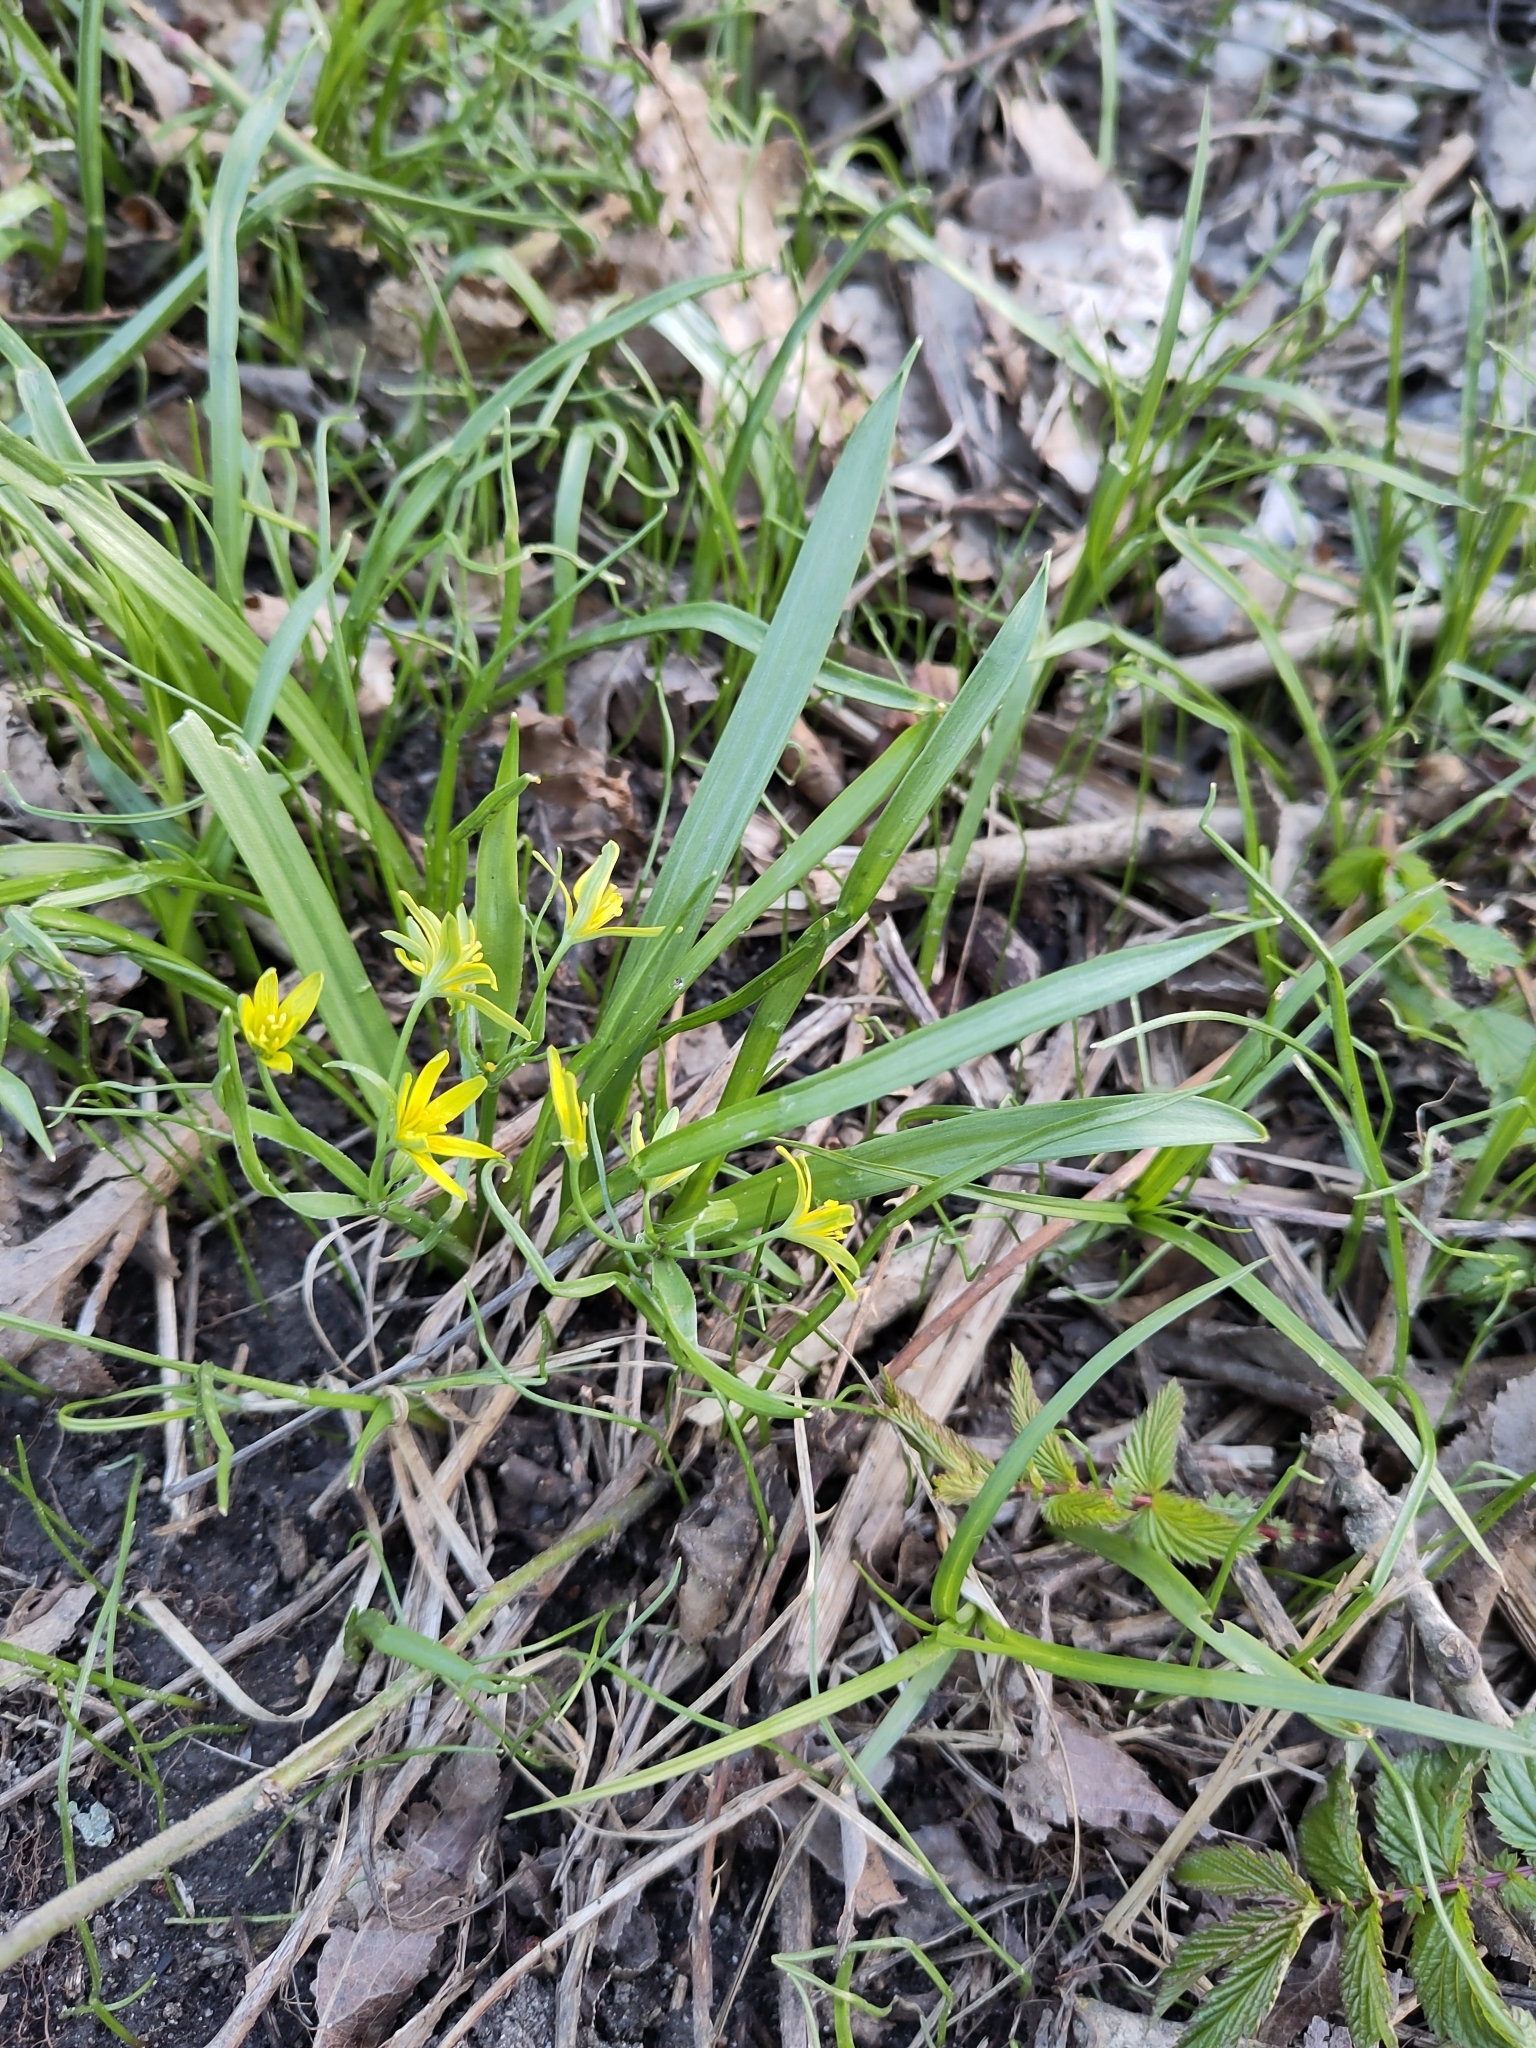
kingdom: Plantae
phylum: Tracheophyta
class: Liliopsida
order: Liliales
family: Liliaceae
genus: Gagea
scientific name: Gagea lutea
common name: Yellow star-of-bethlehem
